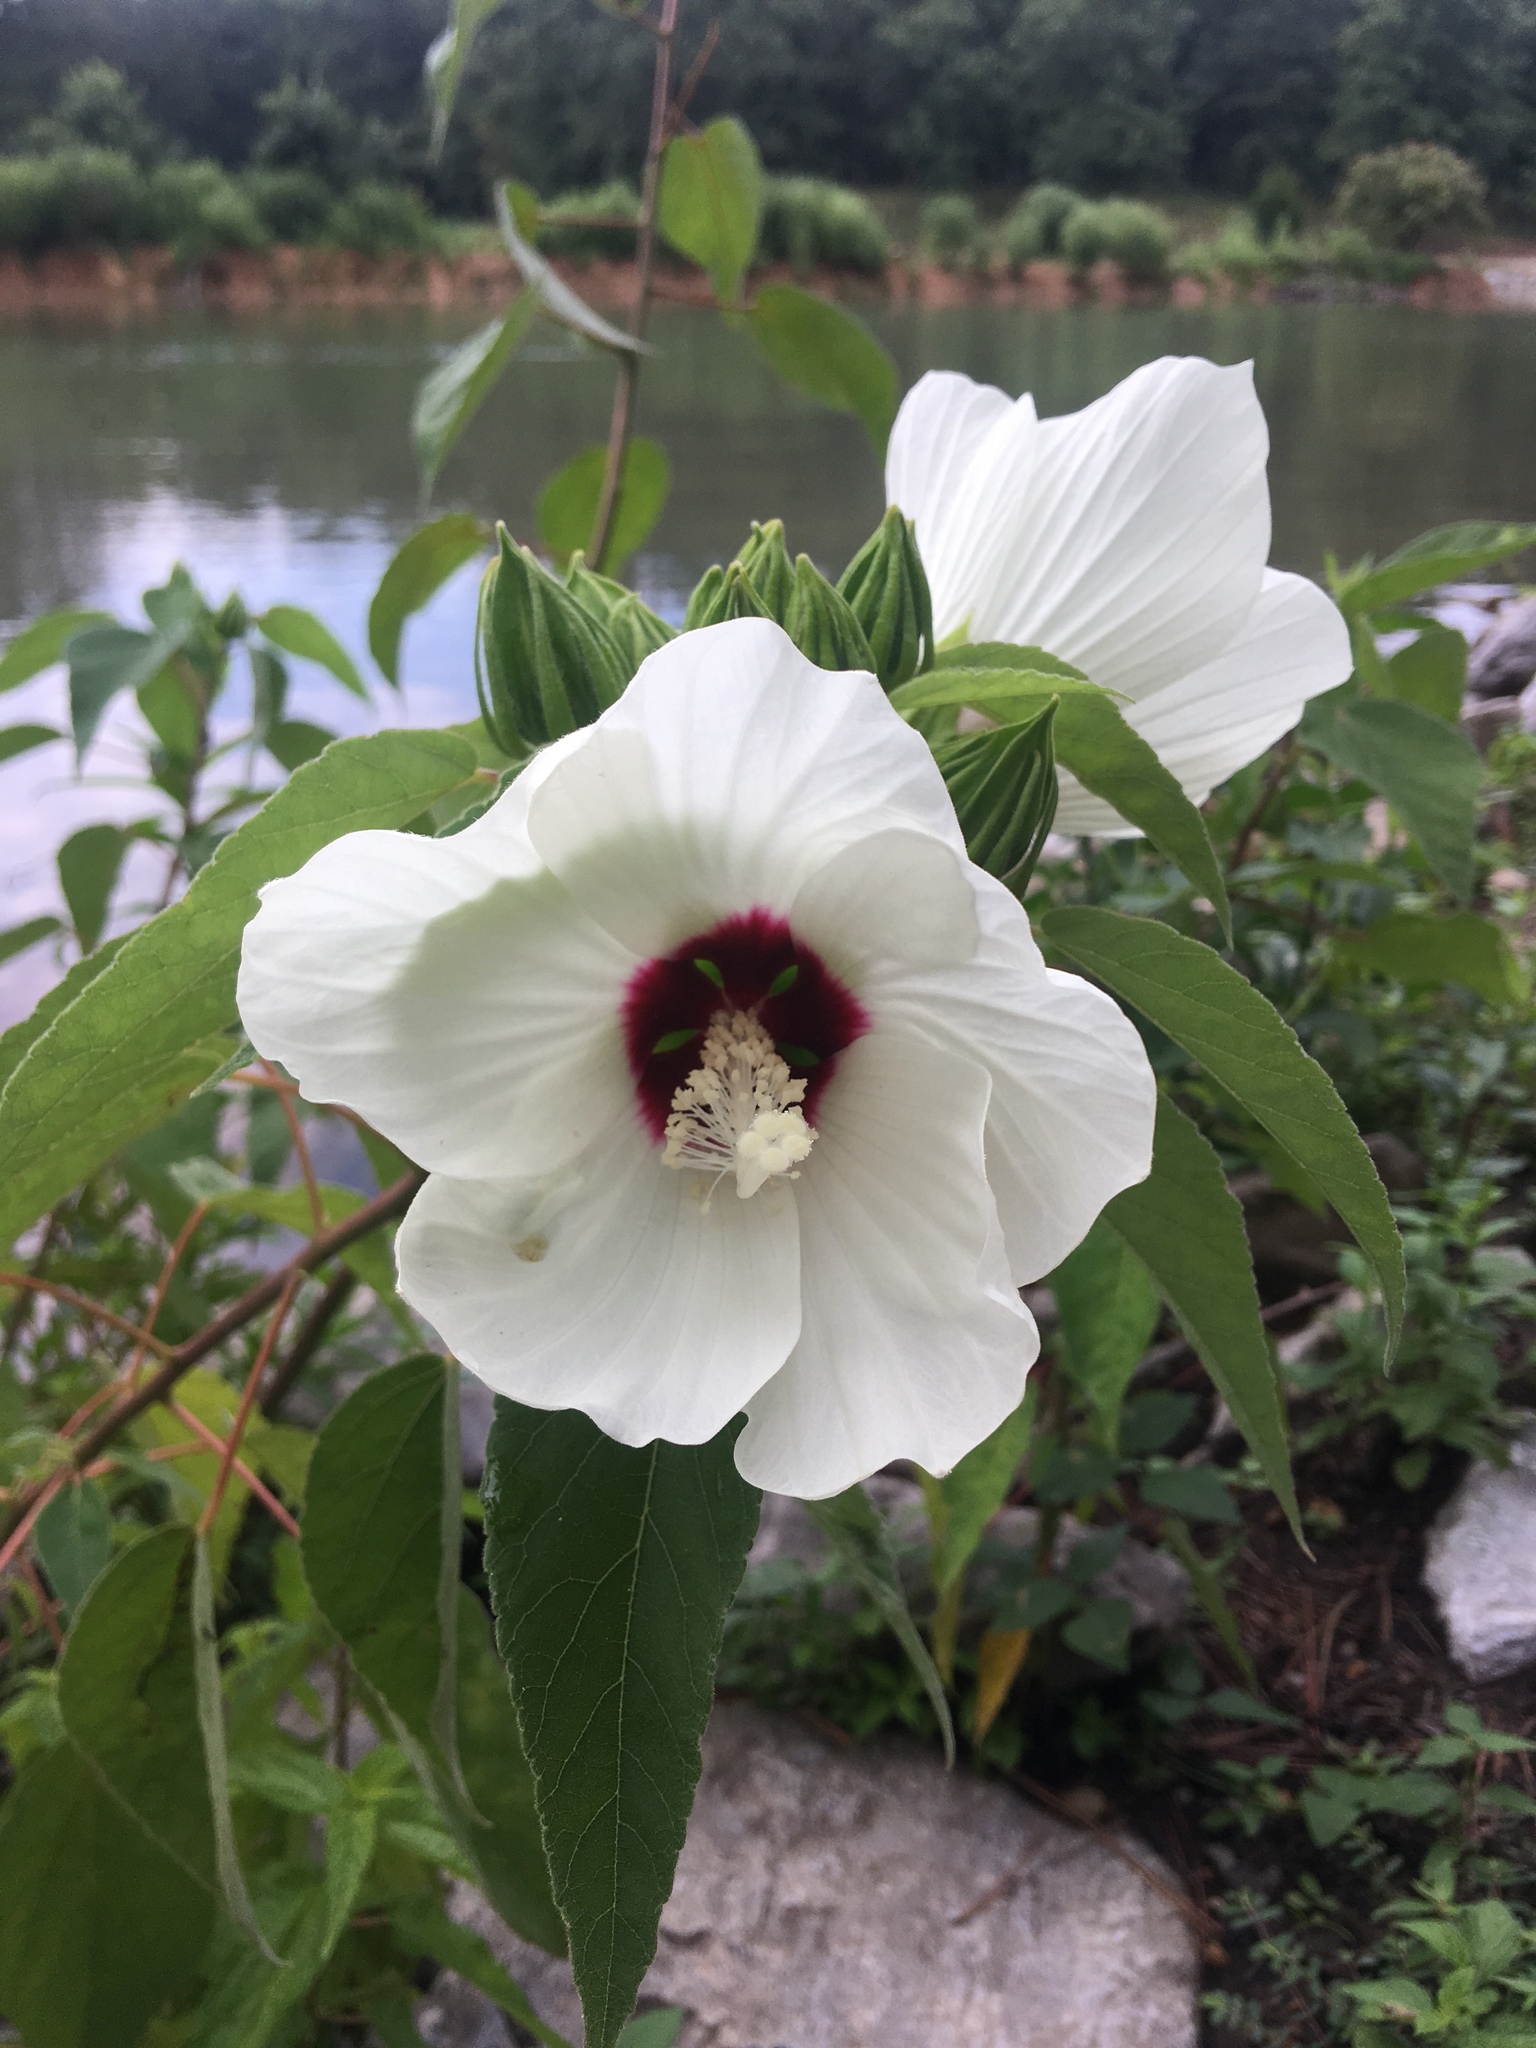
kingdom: Plantae
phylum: Tracheophyta
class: Magnoliopsida
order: Malvales
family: Malvaceae
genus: Hibiscus
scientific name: Hibiscus moscheutos
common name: Common rose-mallow
